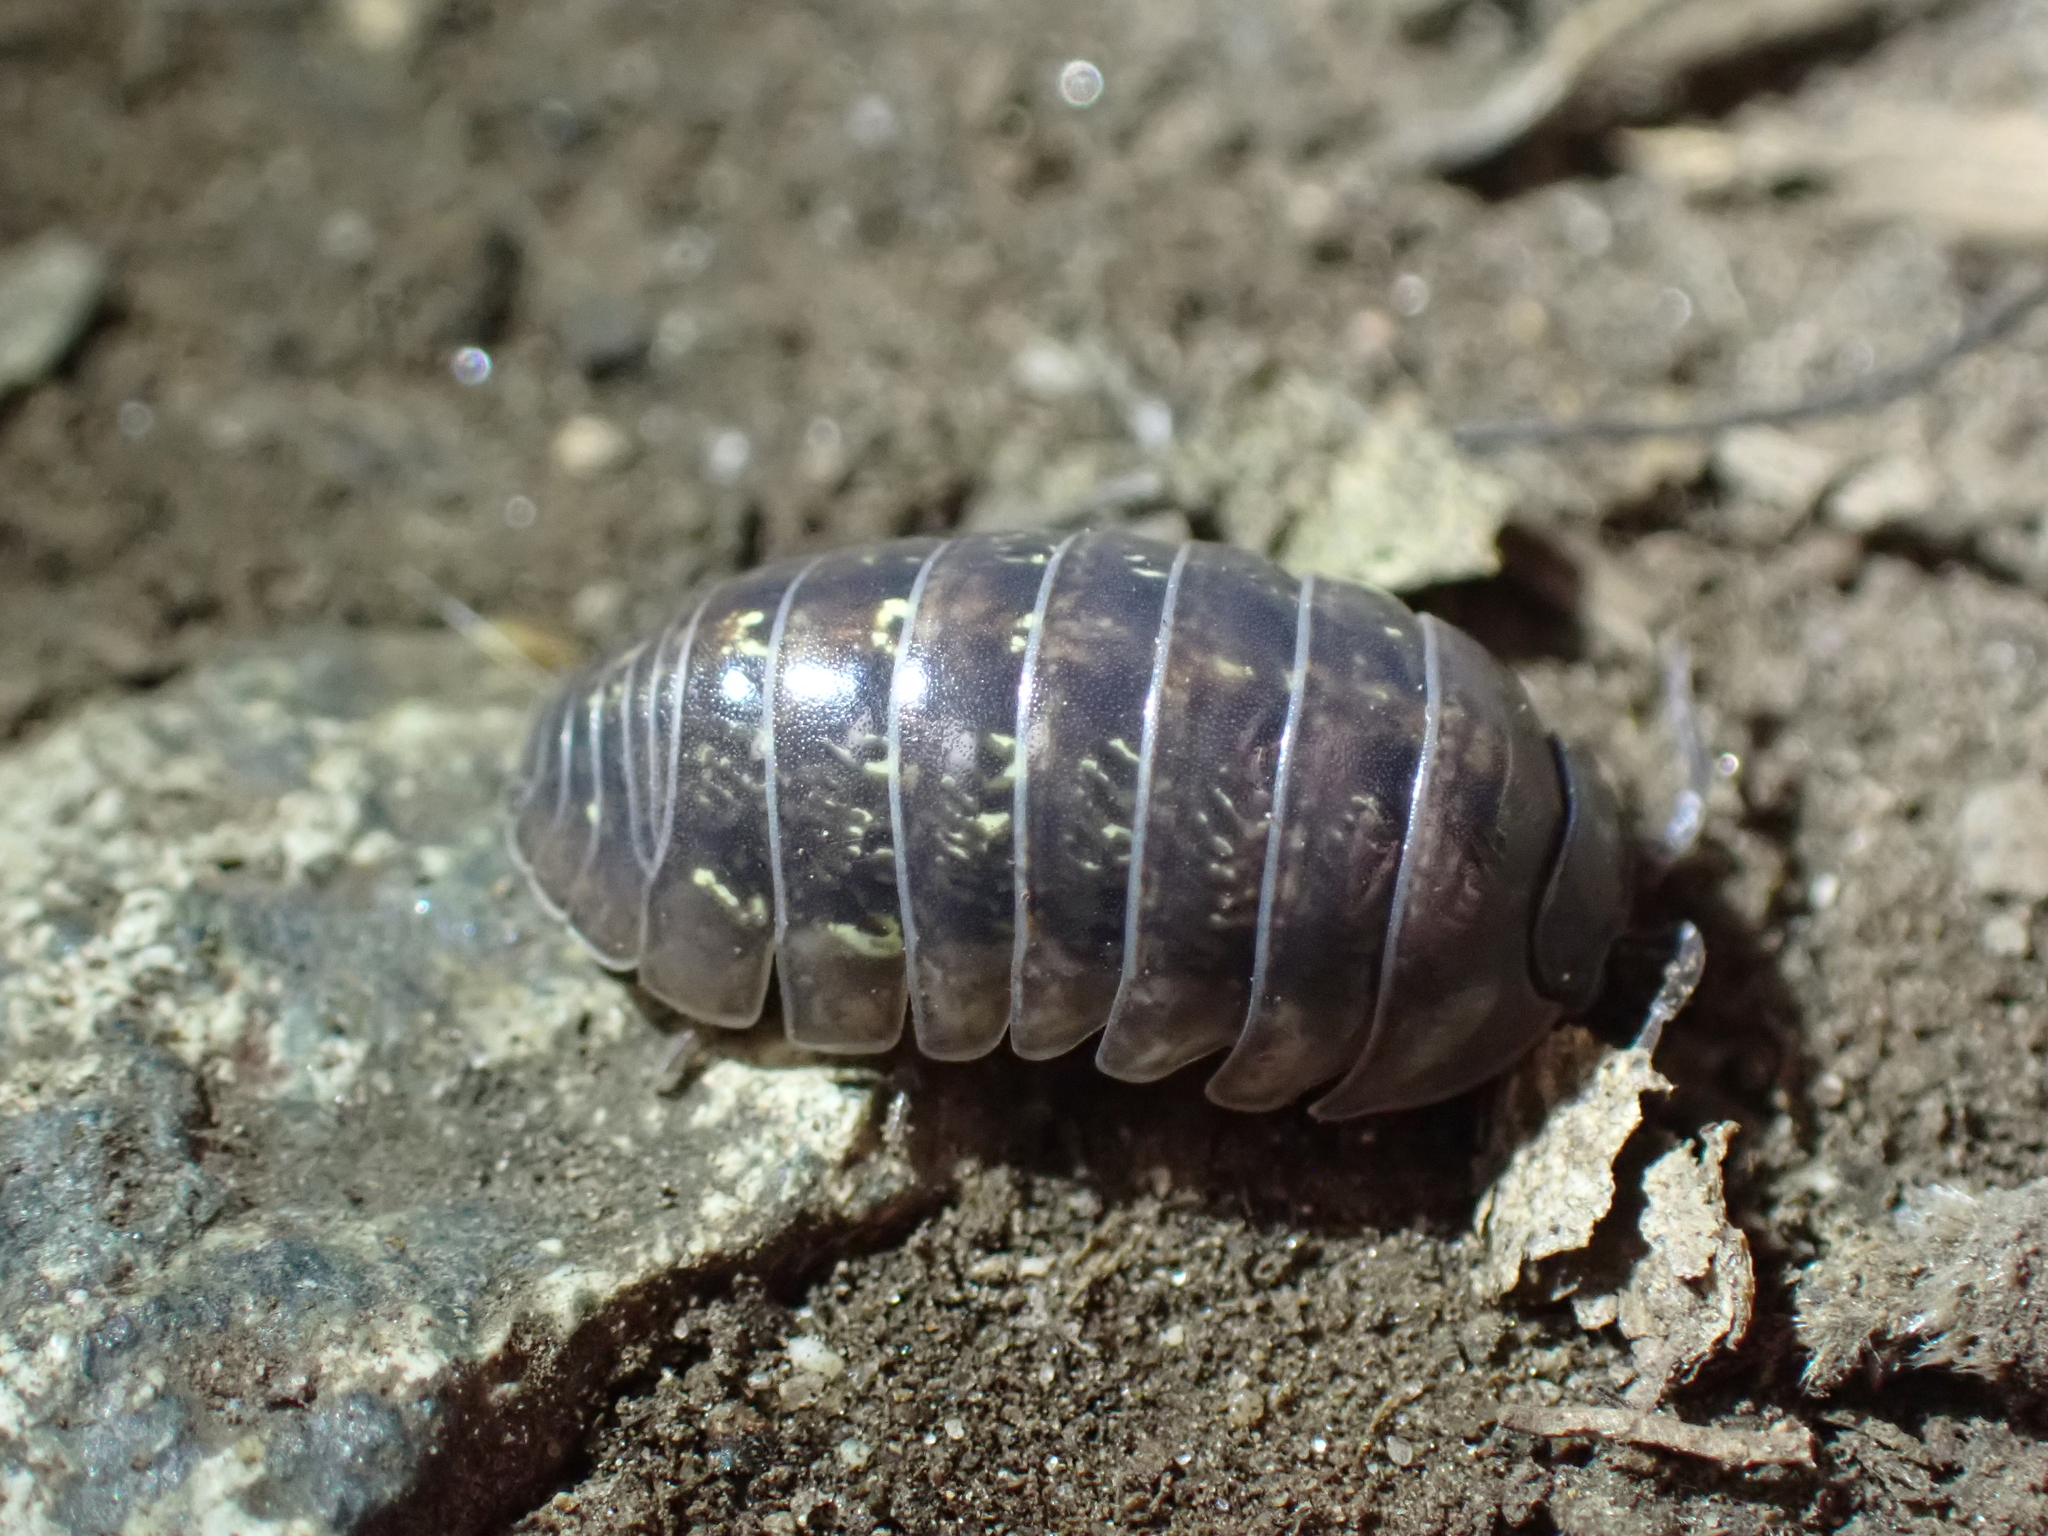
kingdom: Animalia
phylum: Arthropoda
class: Malacostraca
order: Isopoda
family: Armadillidiidae
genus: Armadillidium
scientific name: Armadillidium vulgare
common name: Common pill woodlouse
